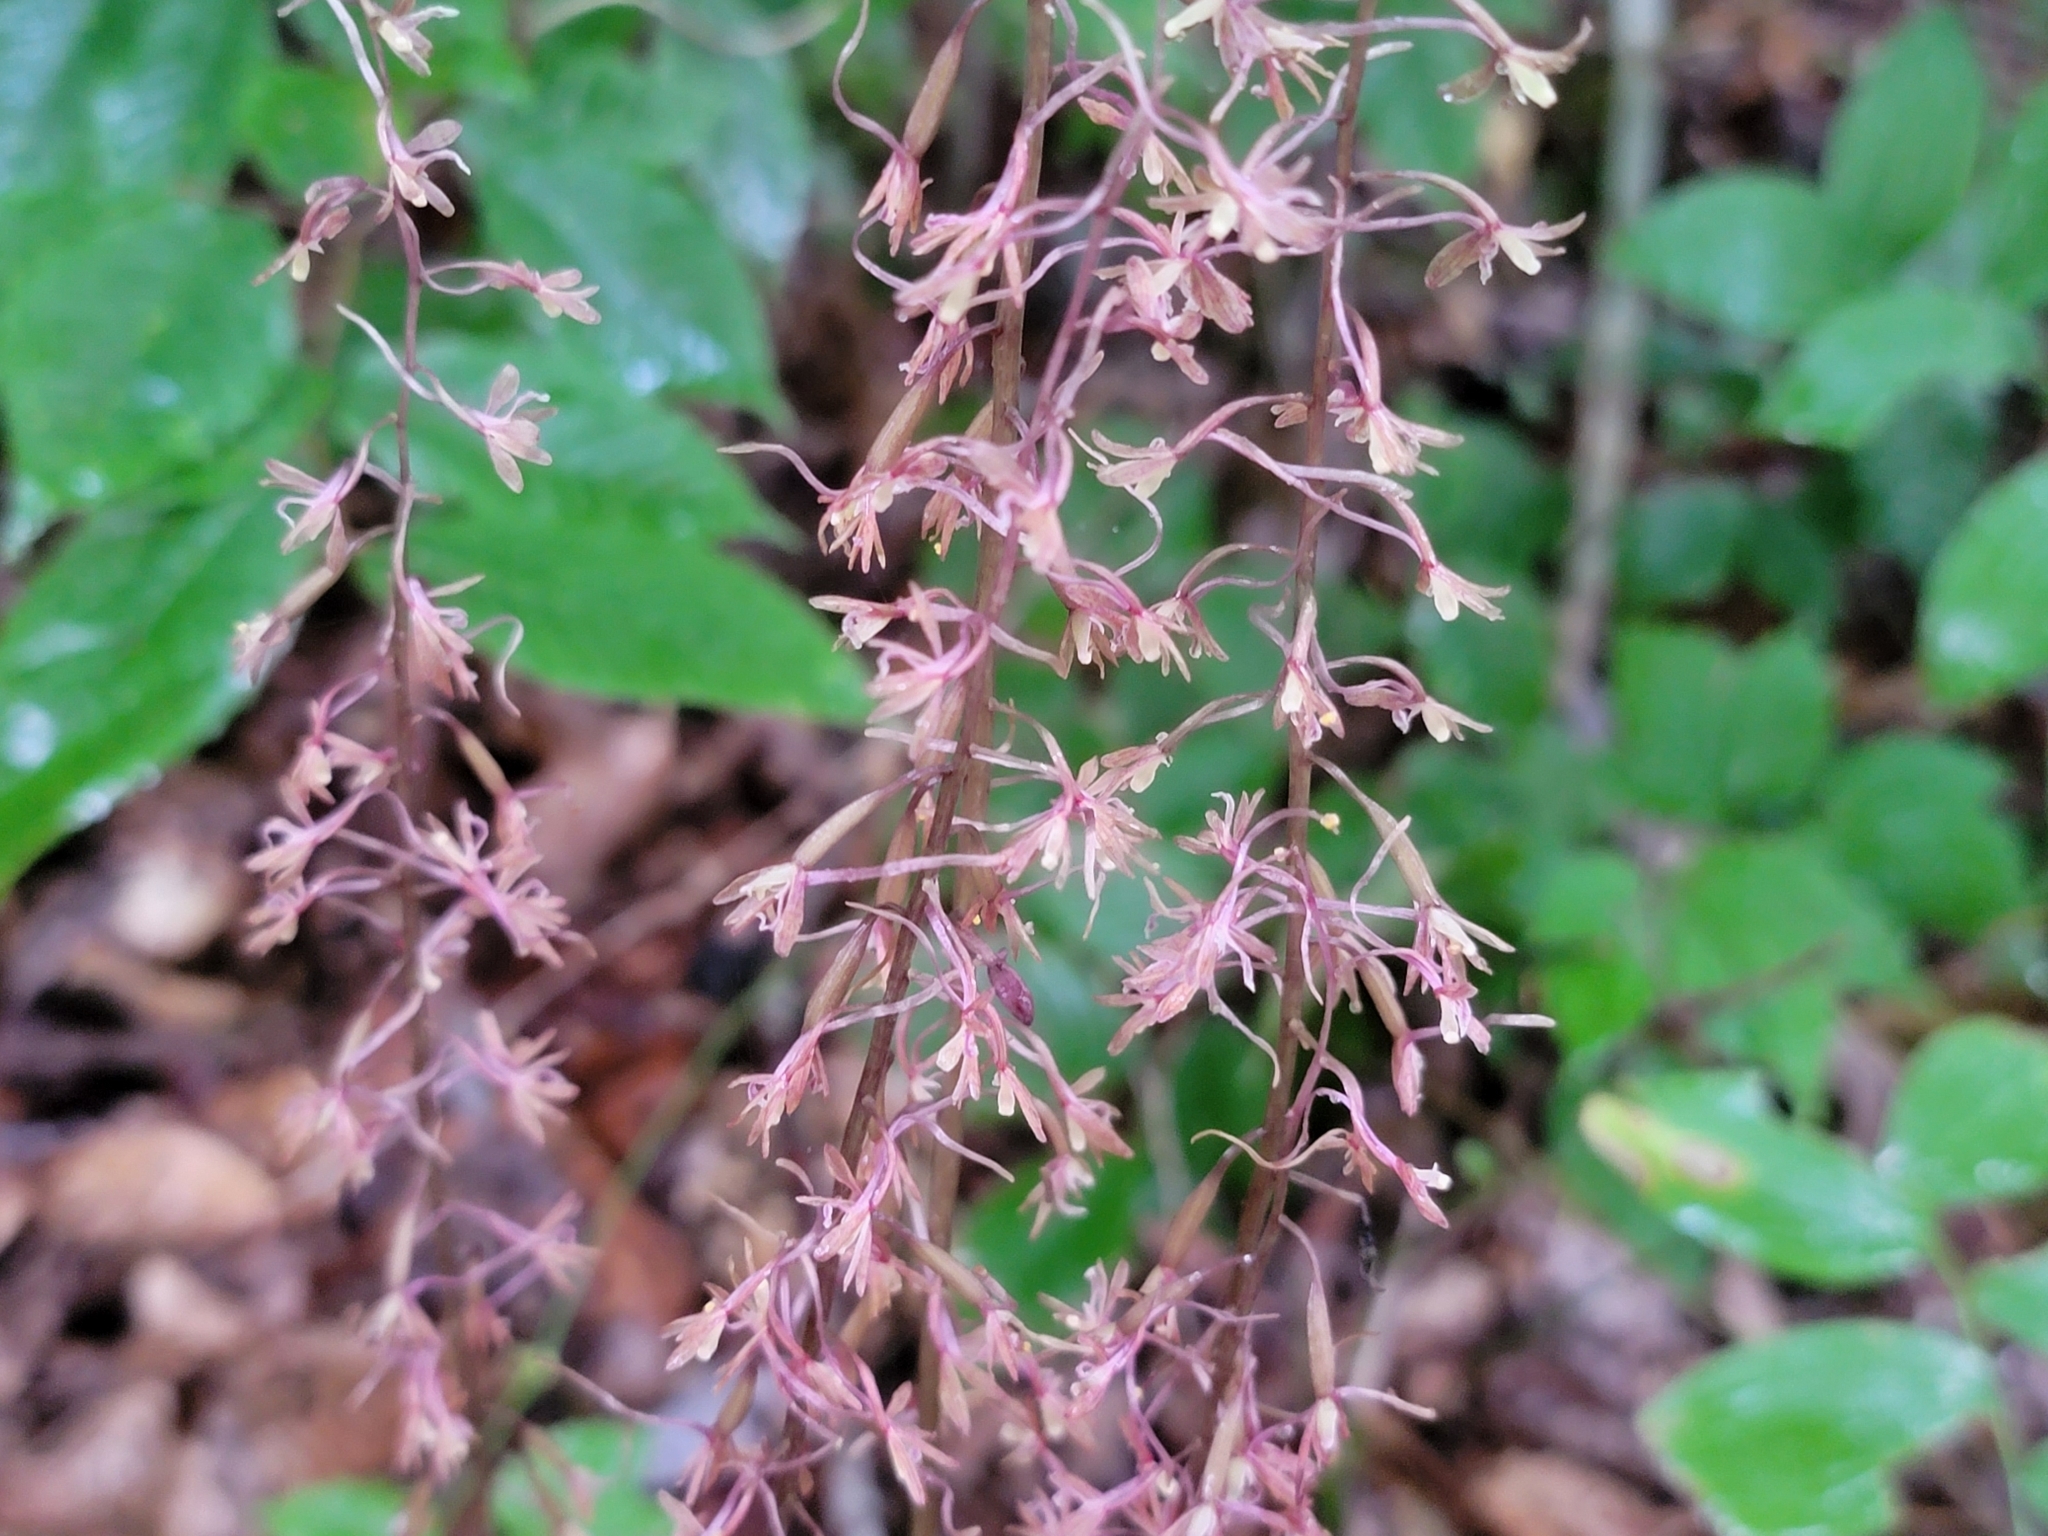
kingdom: Plantae
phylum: Tracheophyta
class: Liliopsida
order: Asparagales
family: Orchidaceae
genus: Tipularia
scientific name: Tipularia discolor
